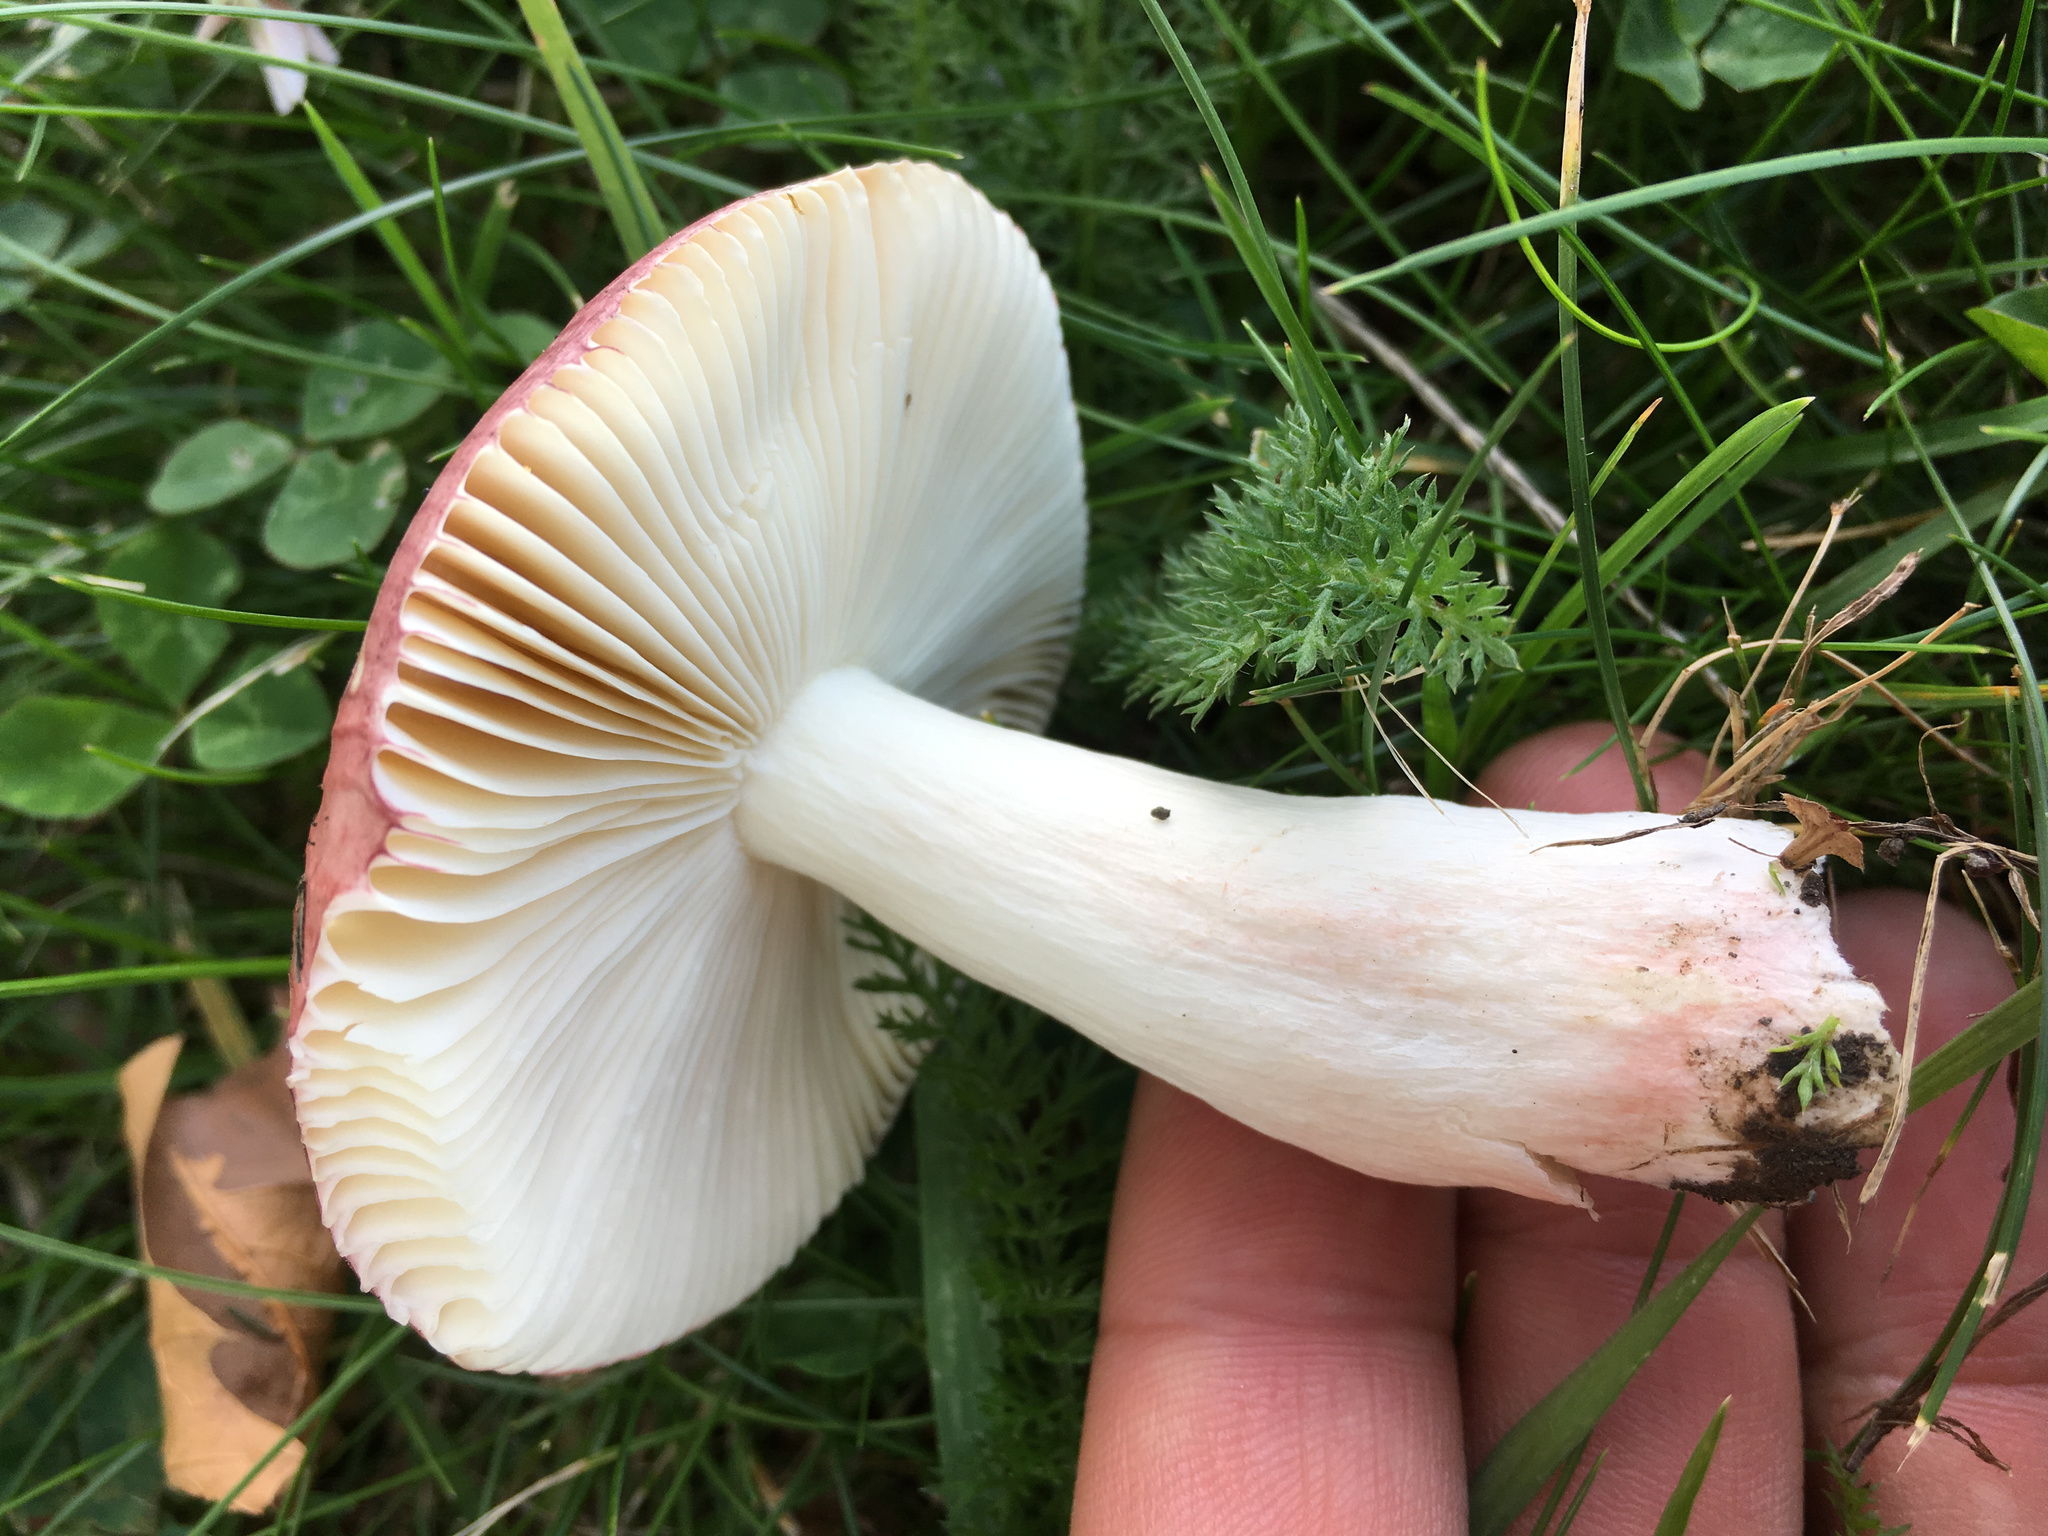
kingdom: Fungi
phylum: Basidiomycota
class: Agaricomycetes
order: Russulales
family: Russulaceae
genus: Russula
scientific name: Russula nitida
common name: Purple swamp brittlegill
